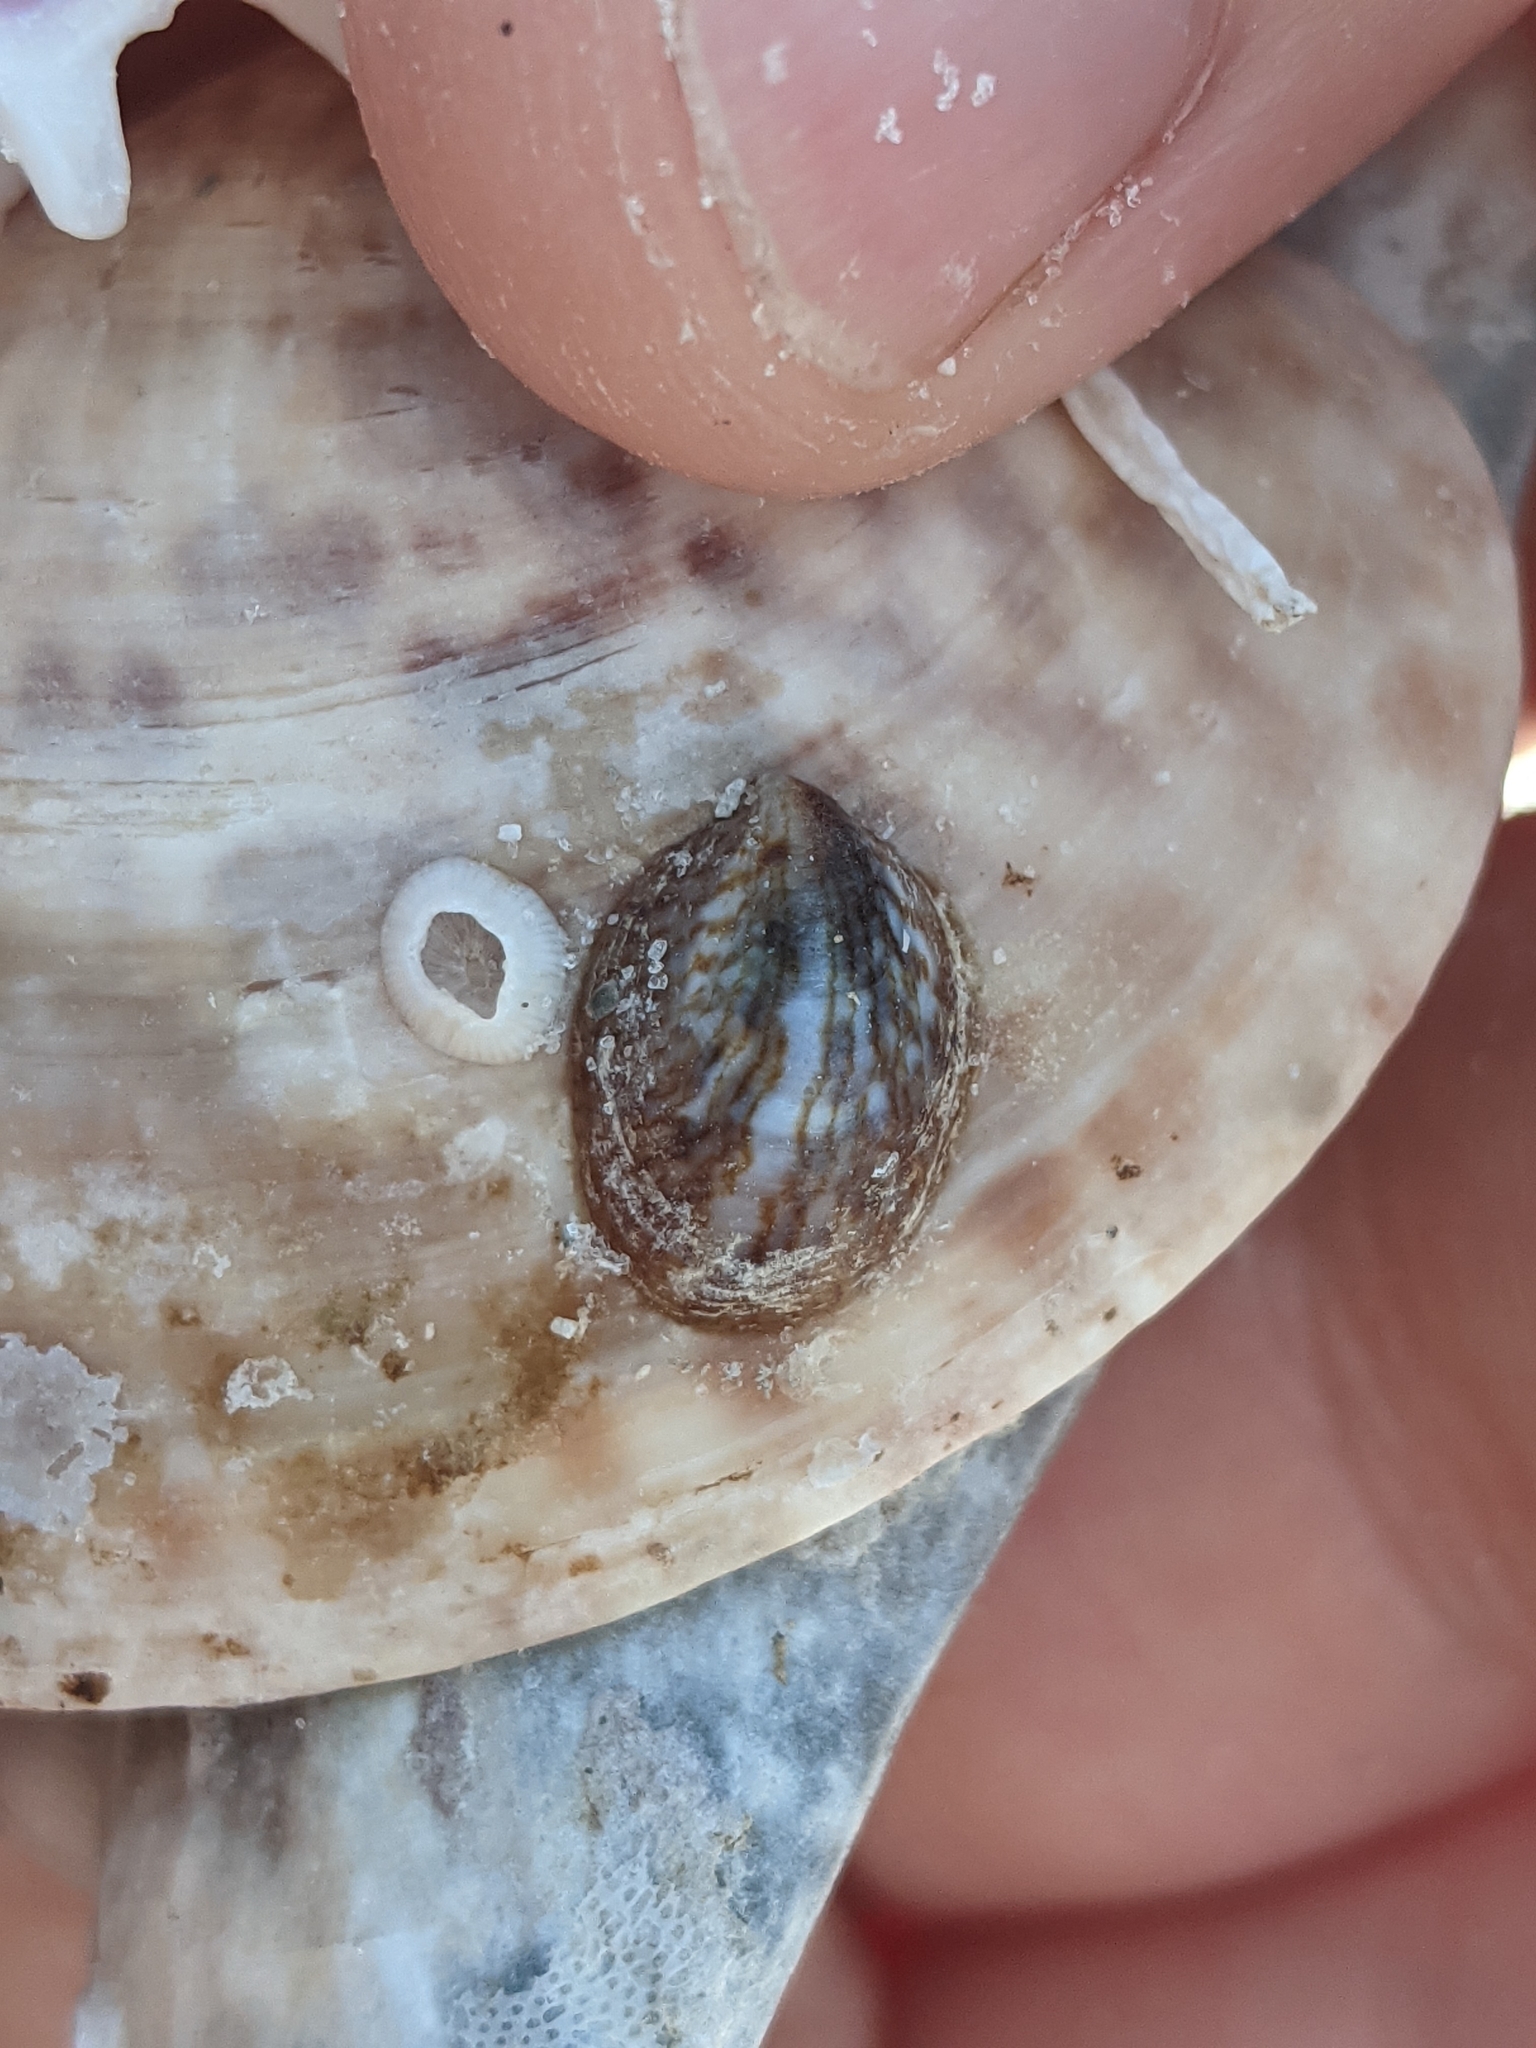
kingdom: Animalia
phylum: Mollusca
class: Gastropoda
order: Littorinimorpha
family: Calyptraeidae
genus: Crepidula
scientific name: Crepidula maculosa
